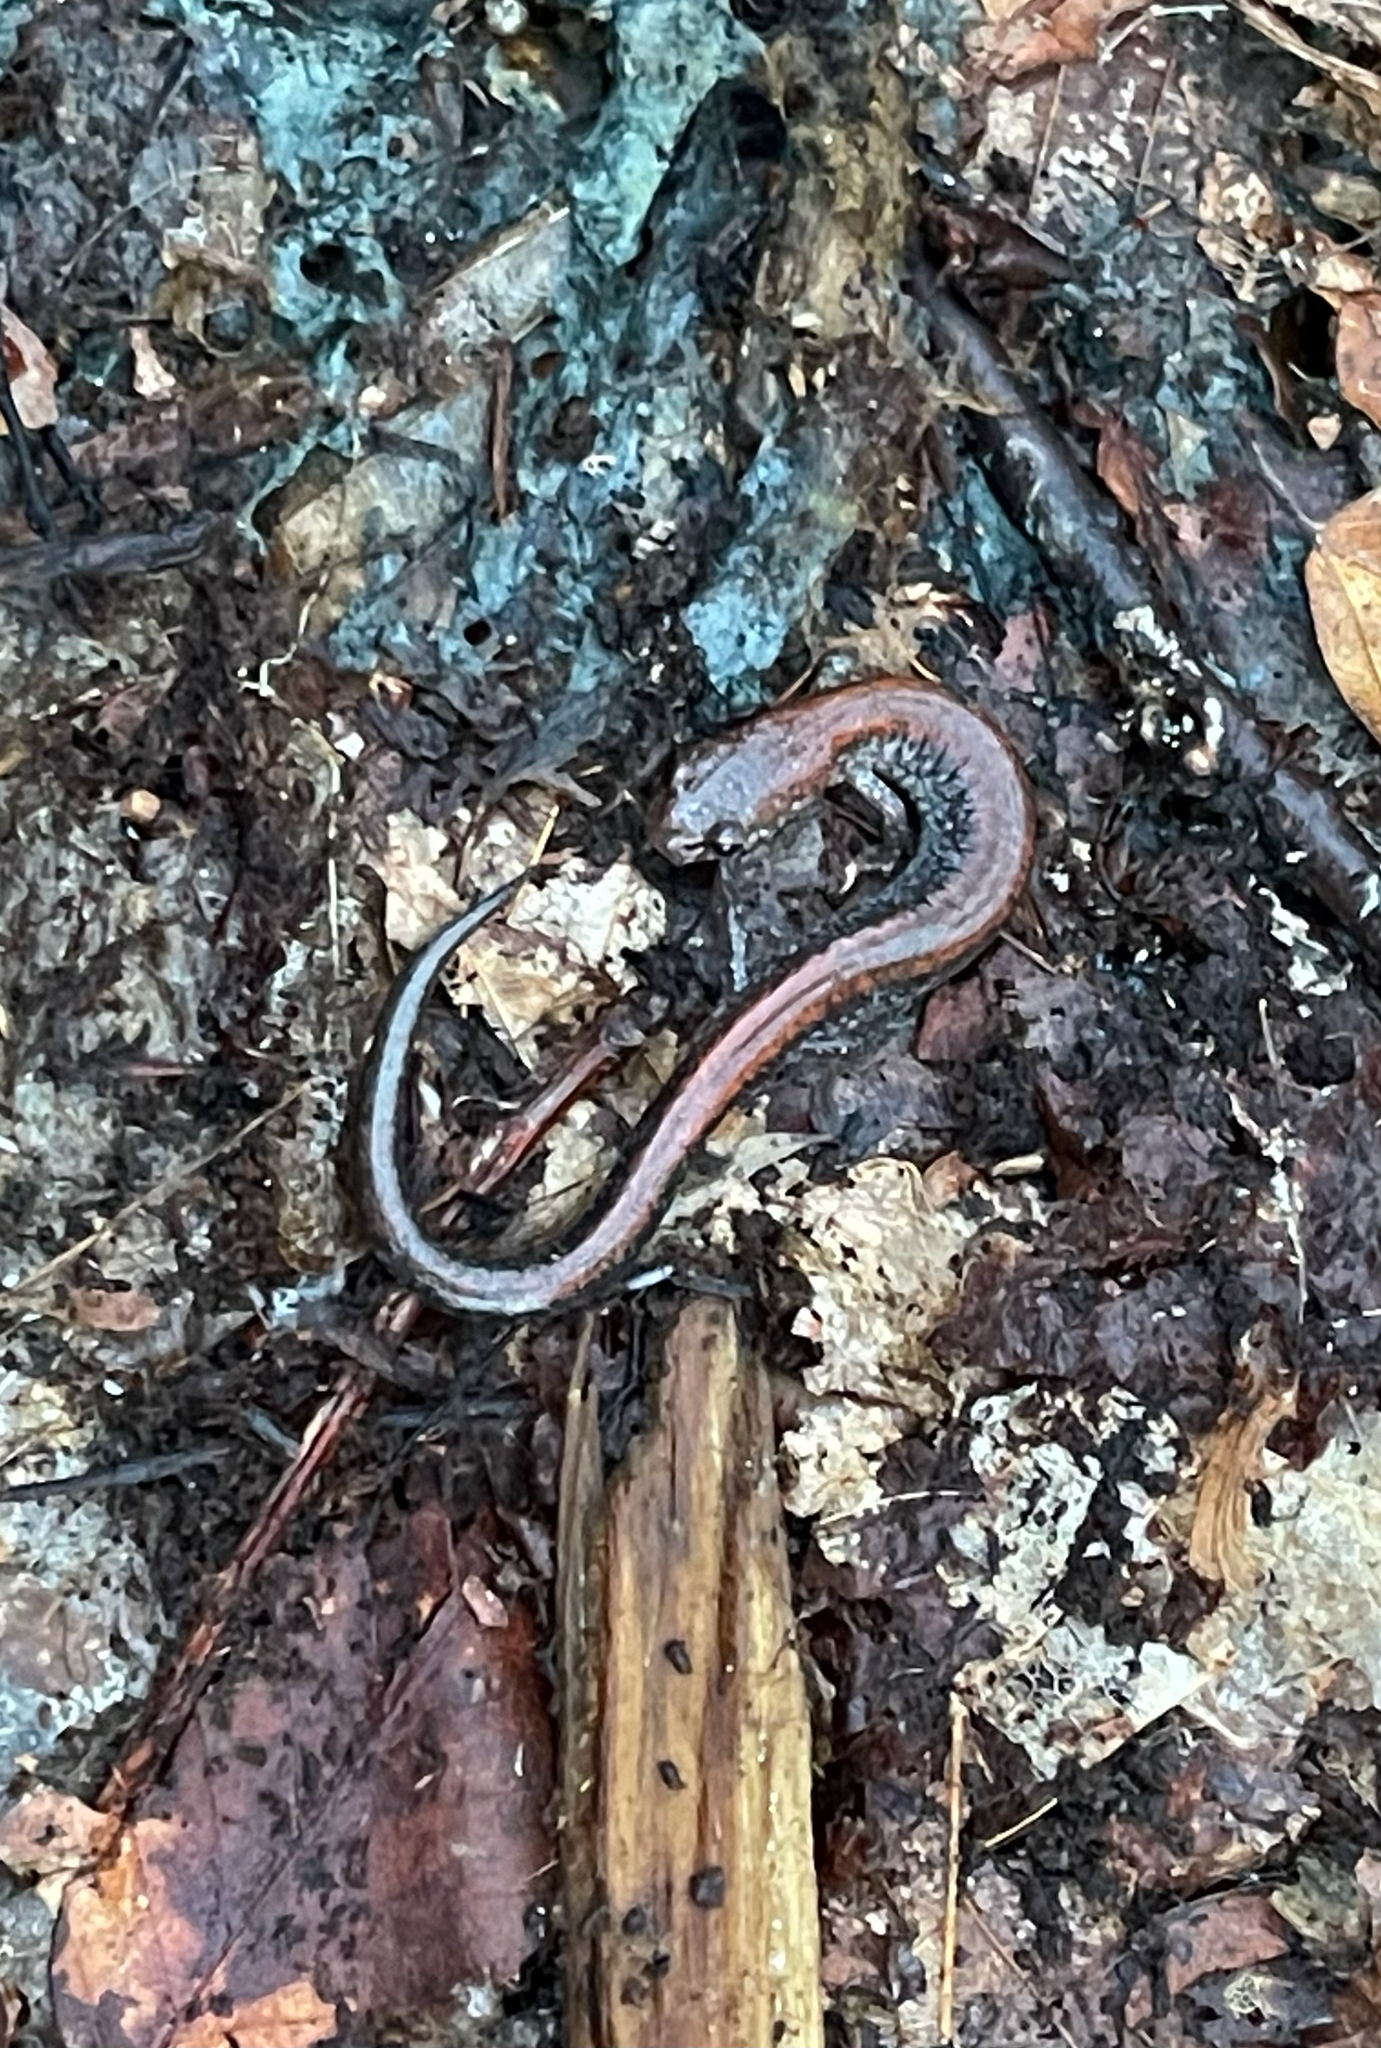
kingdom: Animalia
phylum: Chordata
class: Amphibia
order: Caudata
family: Plethodontidae
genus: Plethodon
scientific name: Plethodon cinereus
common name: Redback salamander
